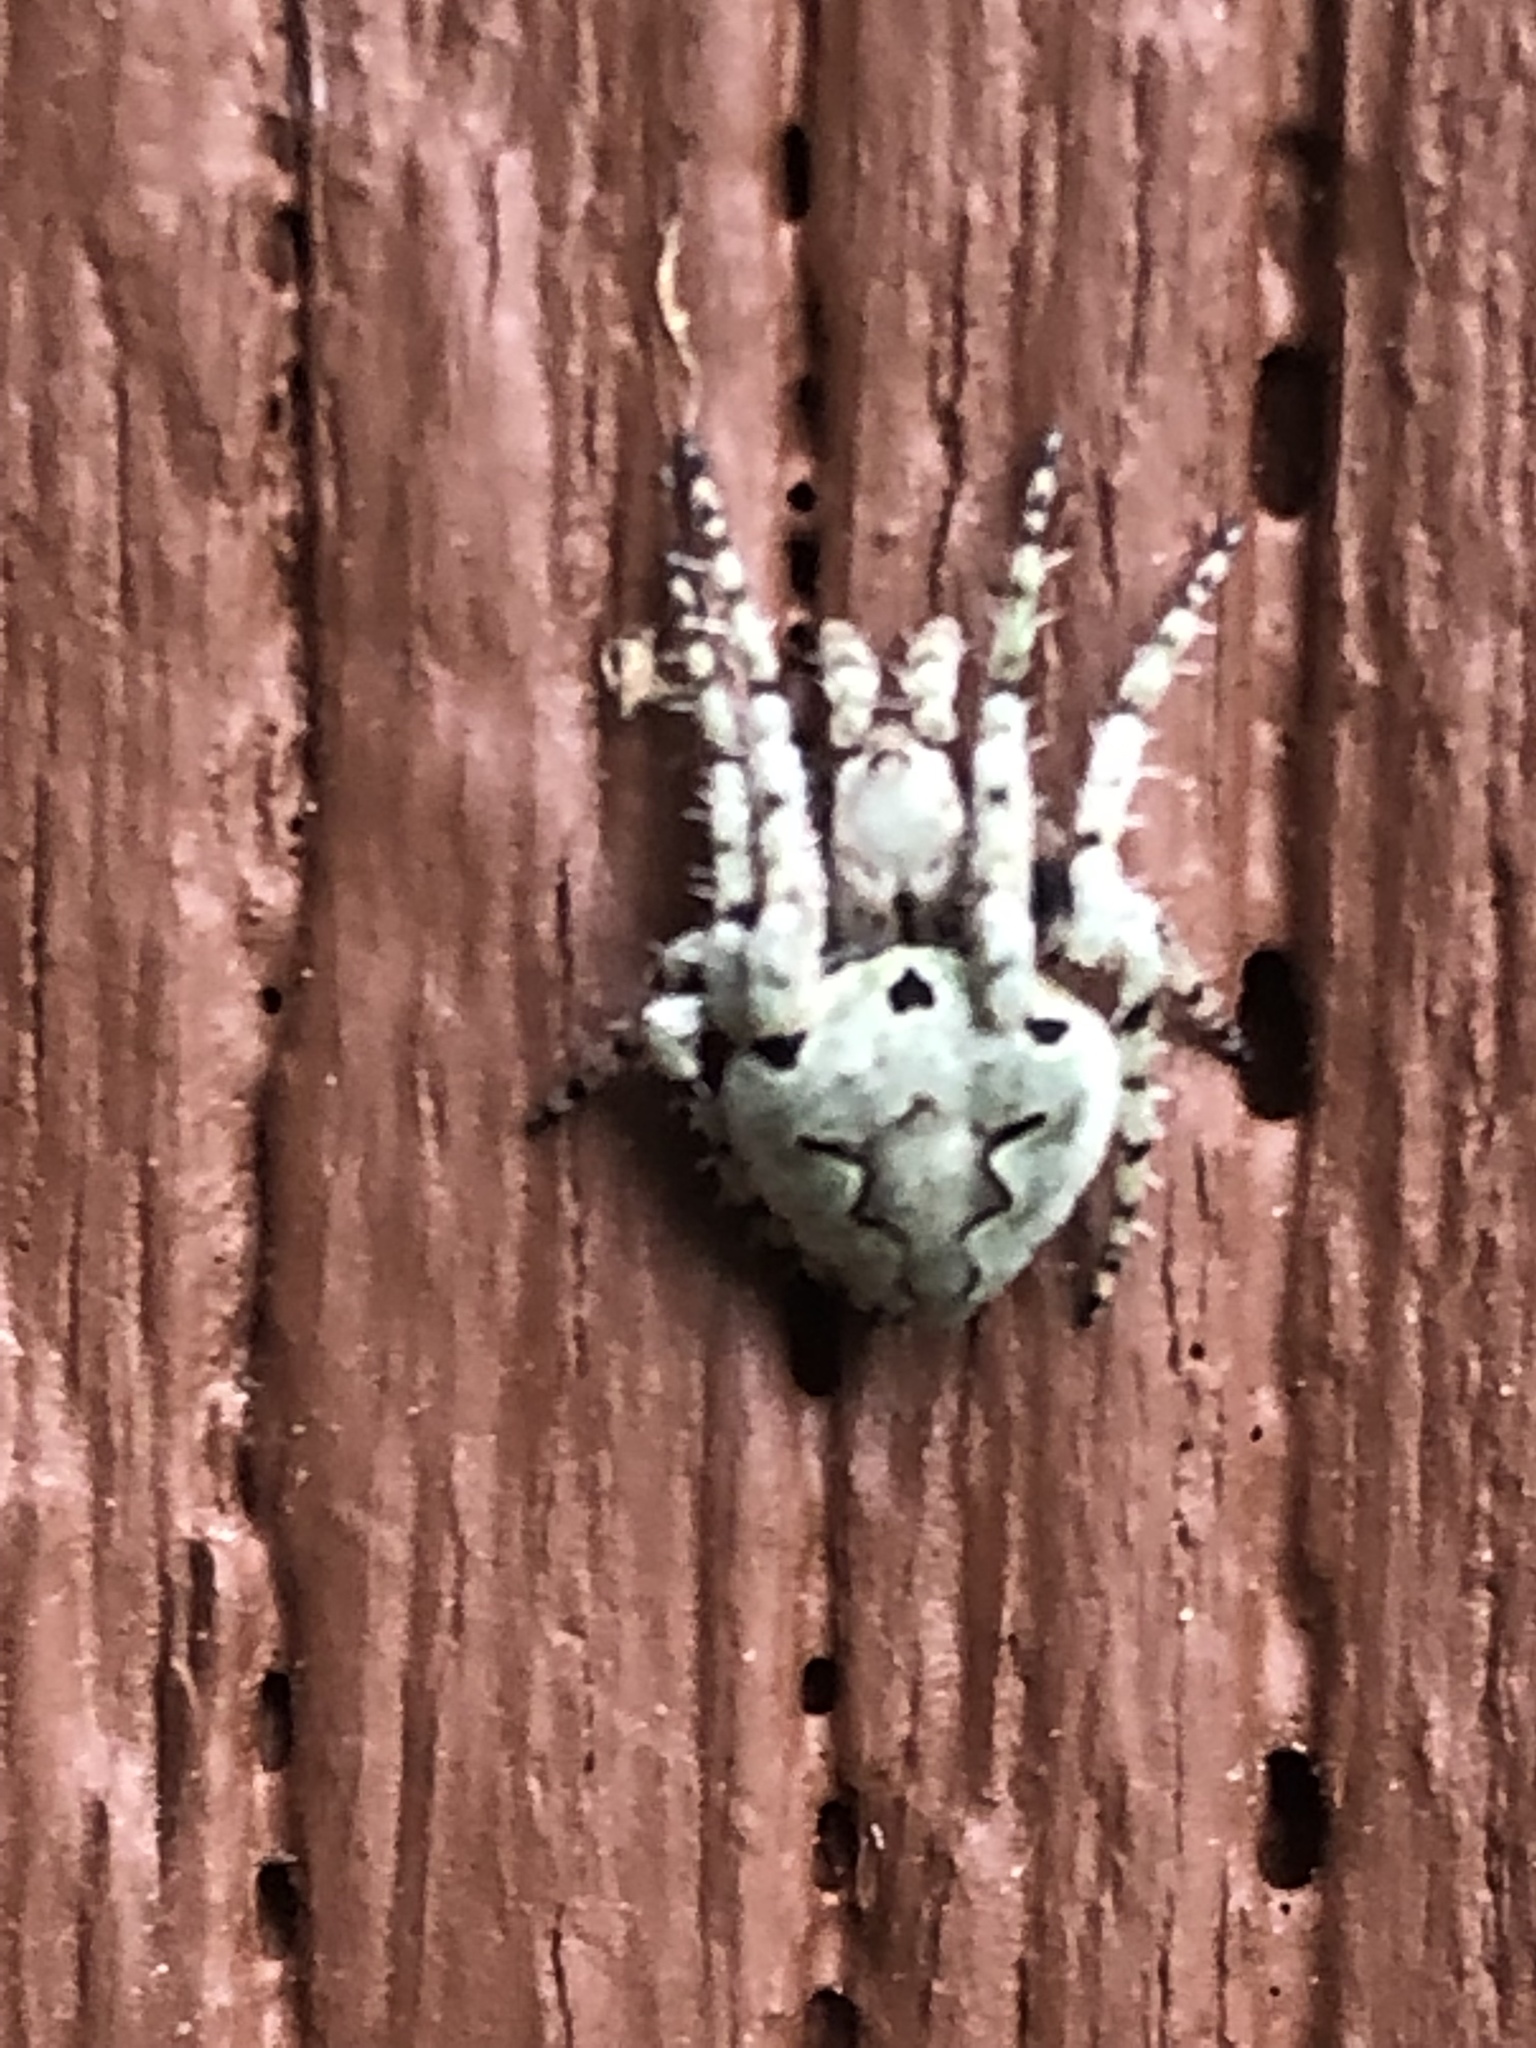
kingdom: Animalia
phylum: Arthropoda
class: Arachnida
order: Araneae
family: Araneidae
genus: Eustala
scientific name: Eustala anastera
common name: Orb weavers
